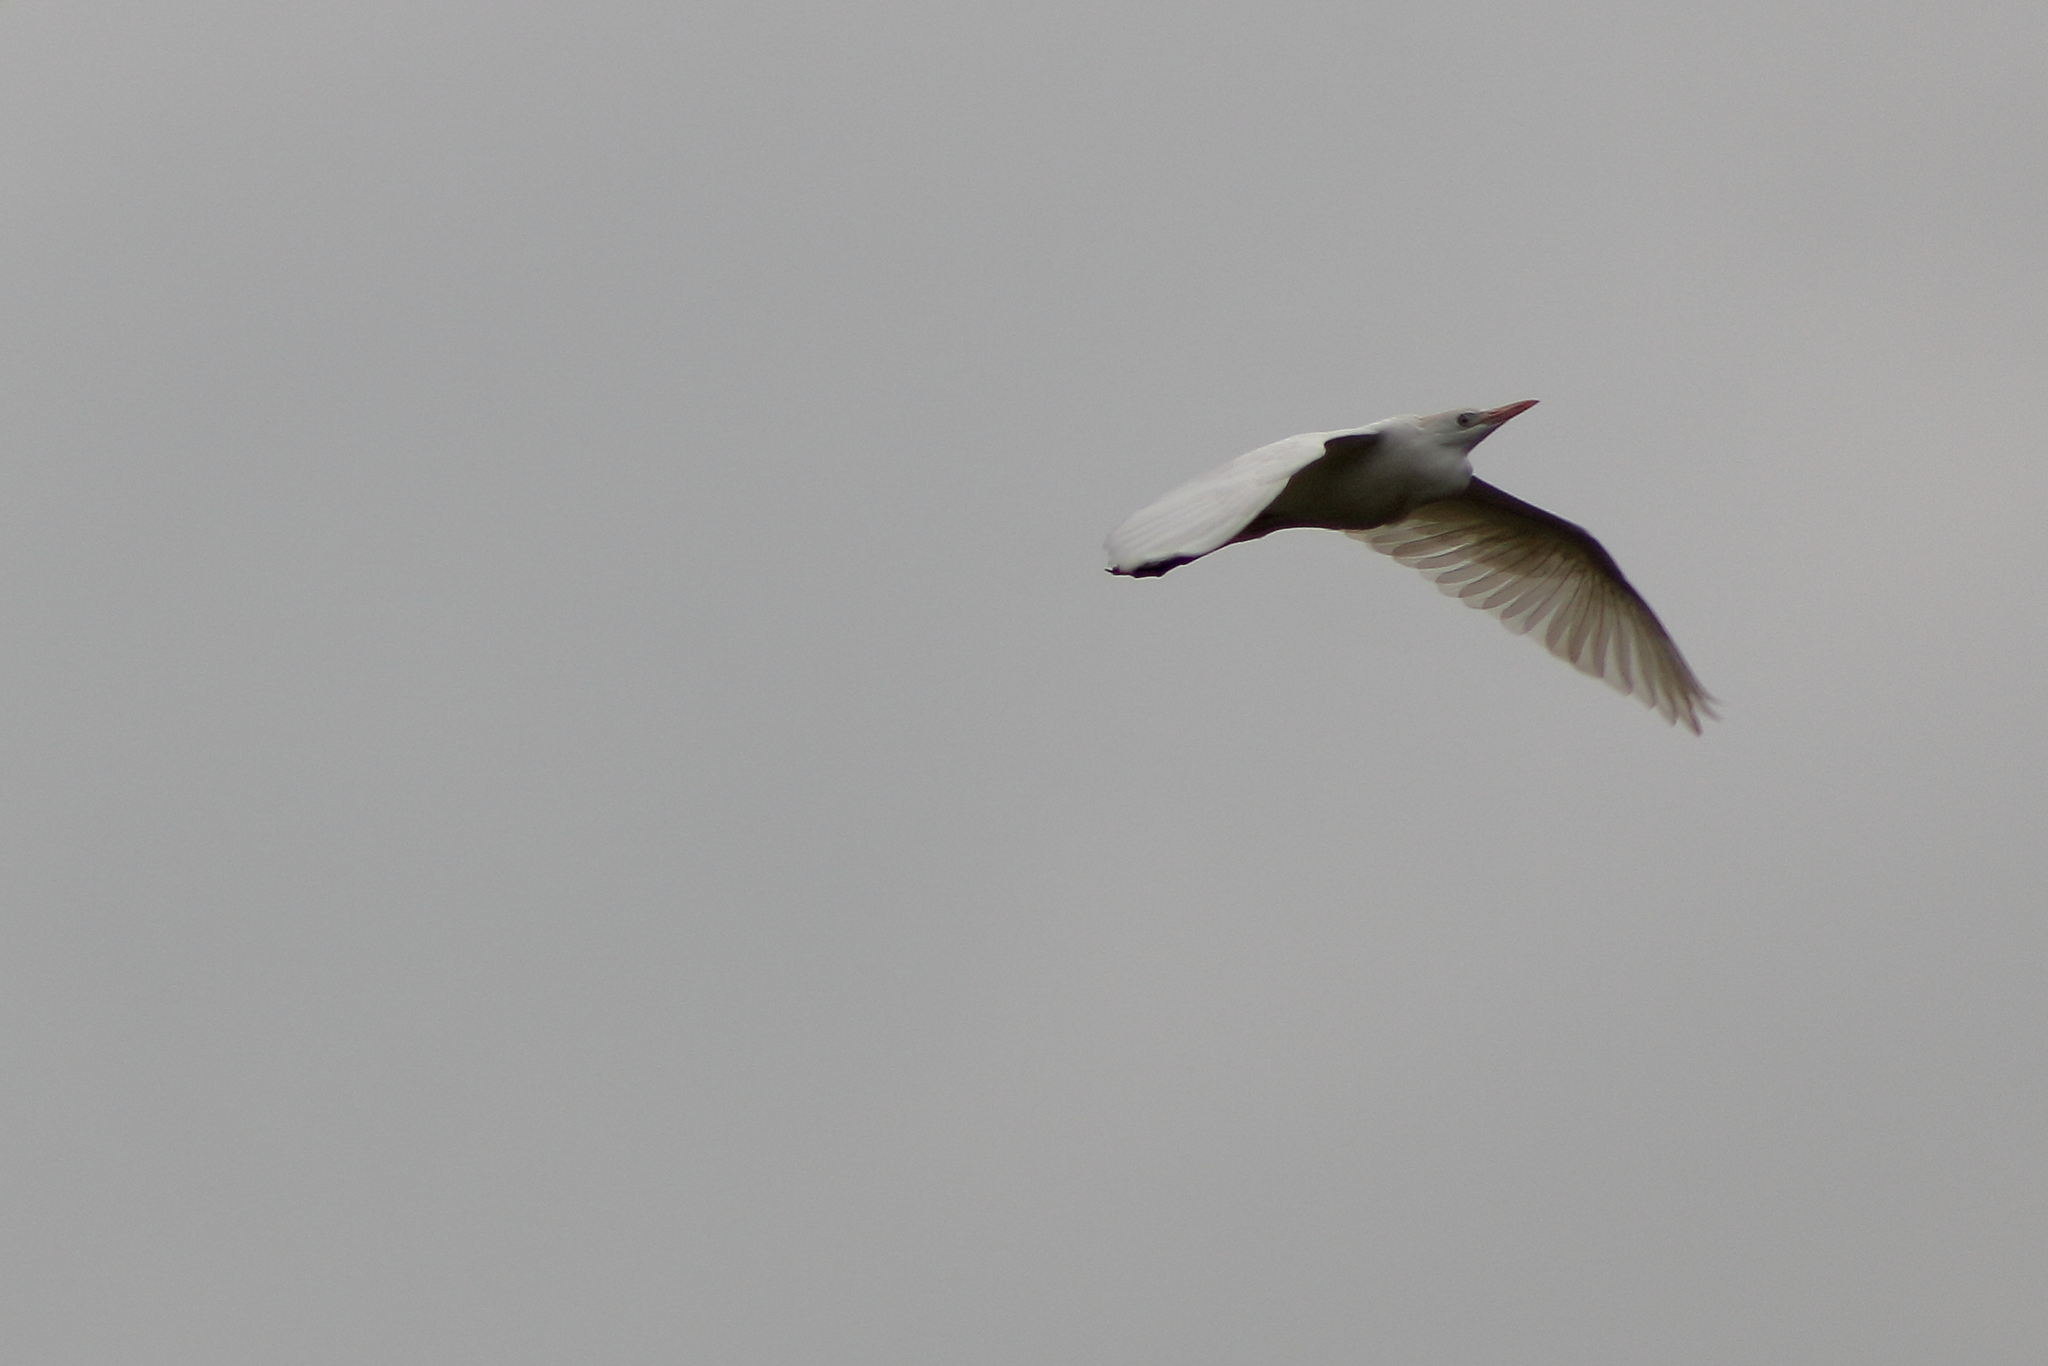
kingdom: Animalia
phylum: Chordata
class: Aves
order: Pelecaniformes
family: Ardeidae
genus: Bubulcus
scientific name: Bubulcus ibis
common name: Cattle egret
